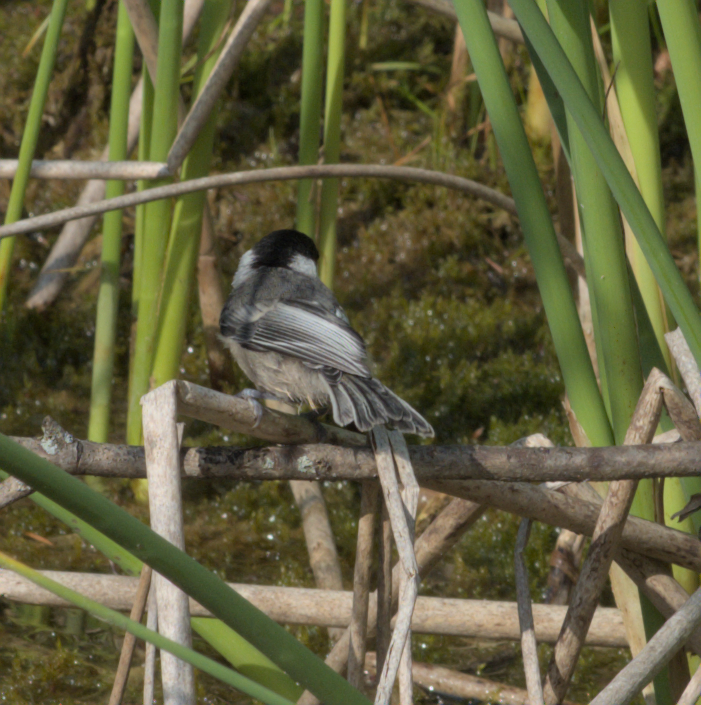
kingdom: Animalia
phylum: Chordata
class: Aves
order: Passeriformes
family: Paridae
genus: Poecile
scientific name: Poecile atricapillus
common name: Black-capped chickadee
